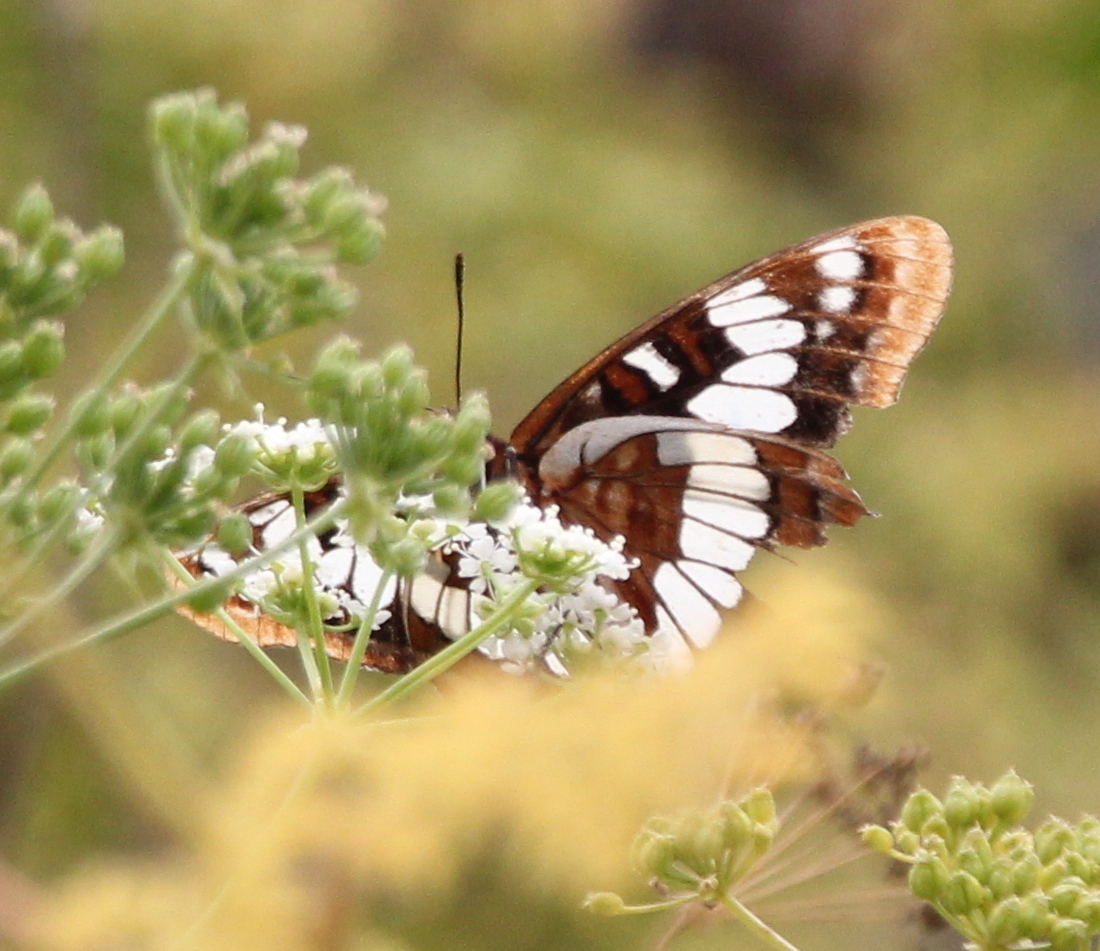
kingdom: Animalia
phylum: Arthropoda
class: Insecta
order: Lepidoptera
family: Nymphalidae
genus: Limenitis
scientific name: Limenitis lorquini
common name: Lorquin's admiral
